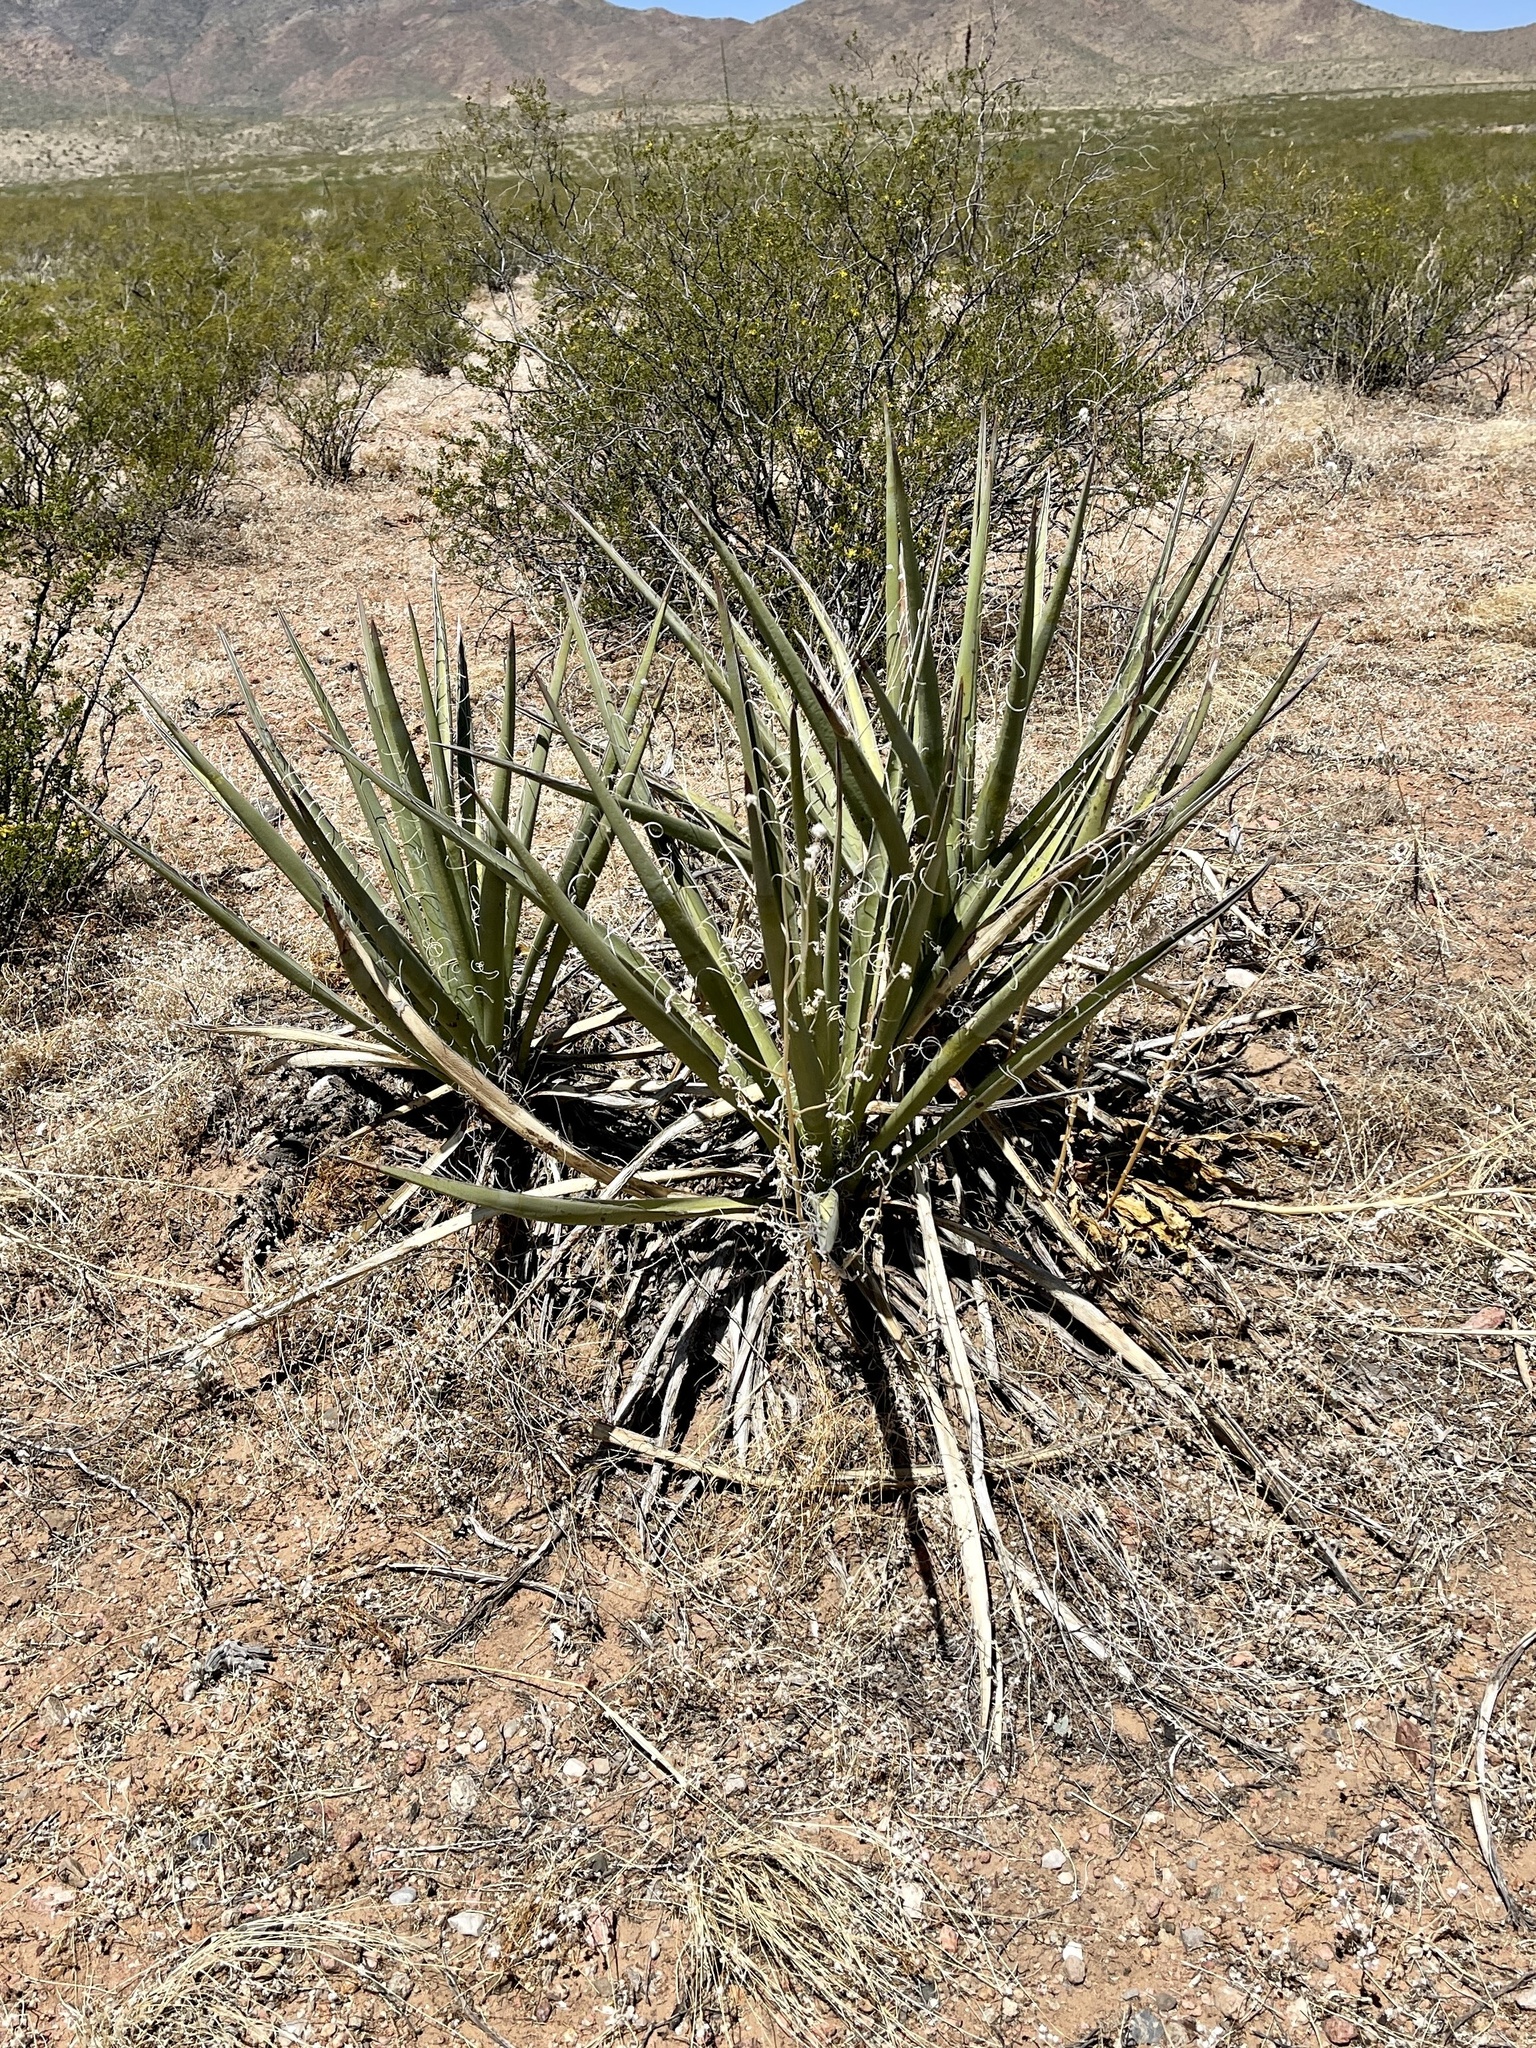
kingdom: Plantae
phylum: Tracheophyta
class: Liliopsida
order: Asparagales
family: Asparagaceae
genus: Yucca
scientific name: Yucca baccata
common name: Banana yucca
